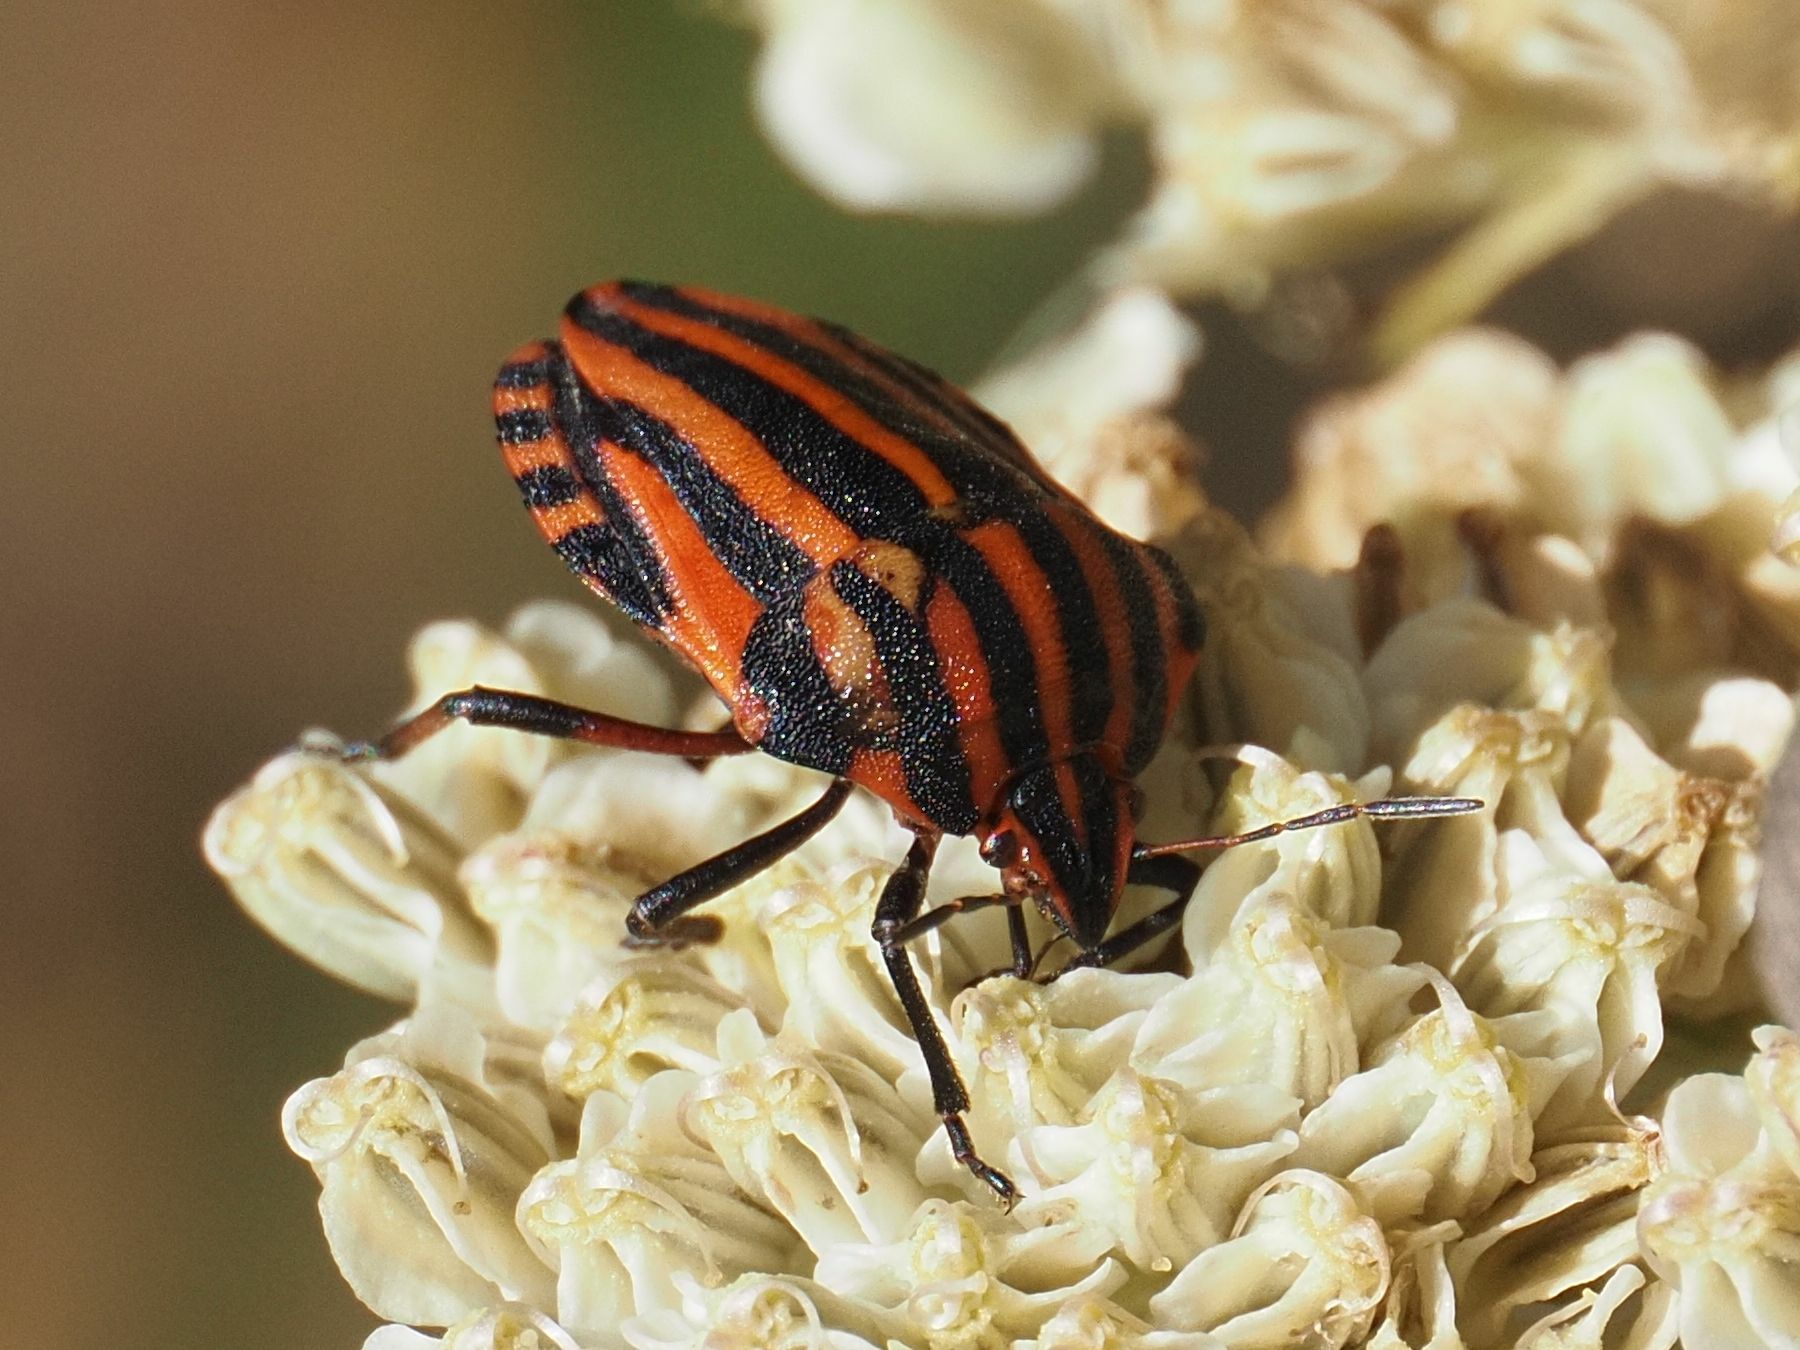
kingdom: Animalia
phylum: Arthropoda
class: Insecta
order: Hemiptera
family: Pentatomidae
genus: Graphosoma
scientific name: Graphosoma italicum
